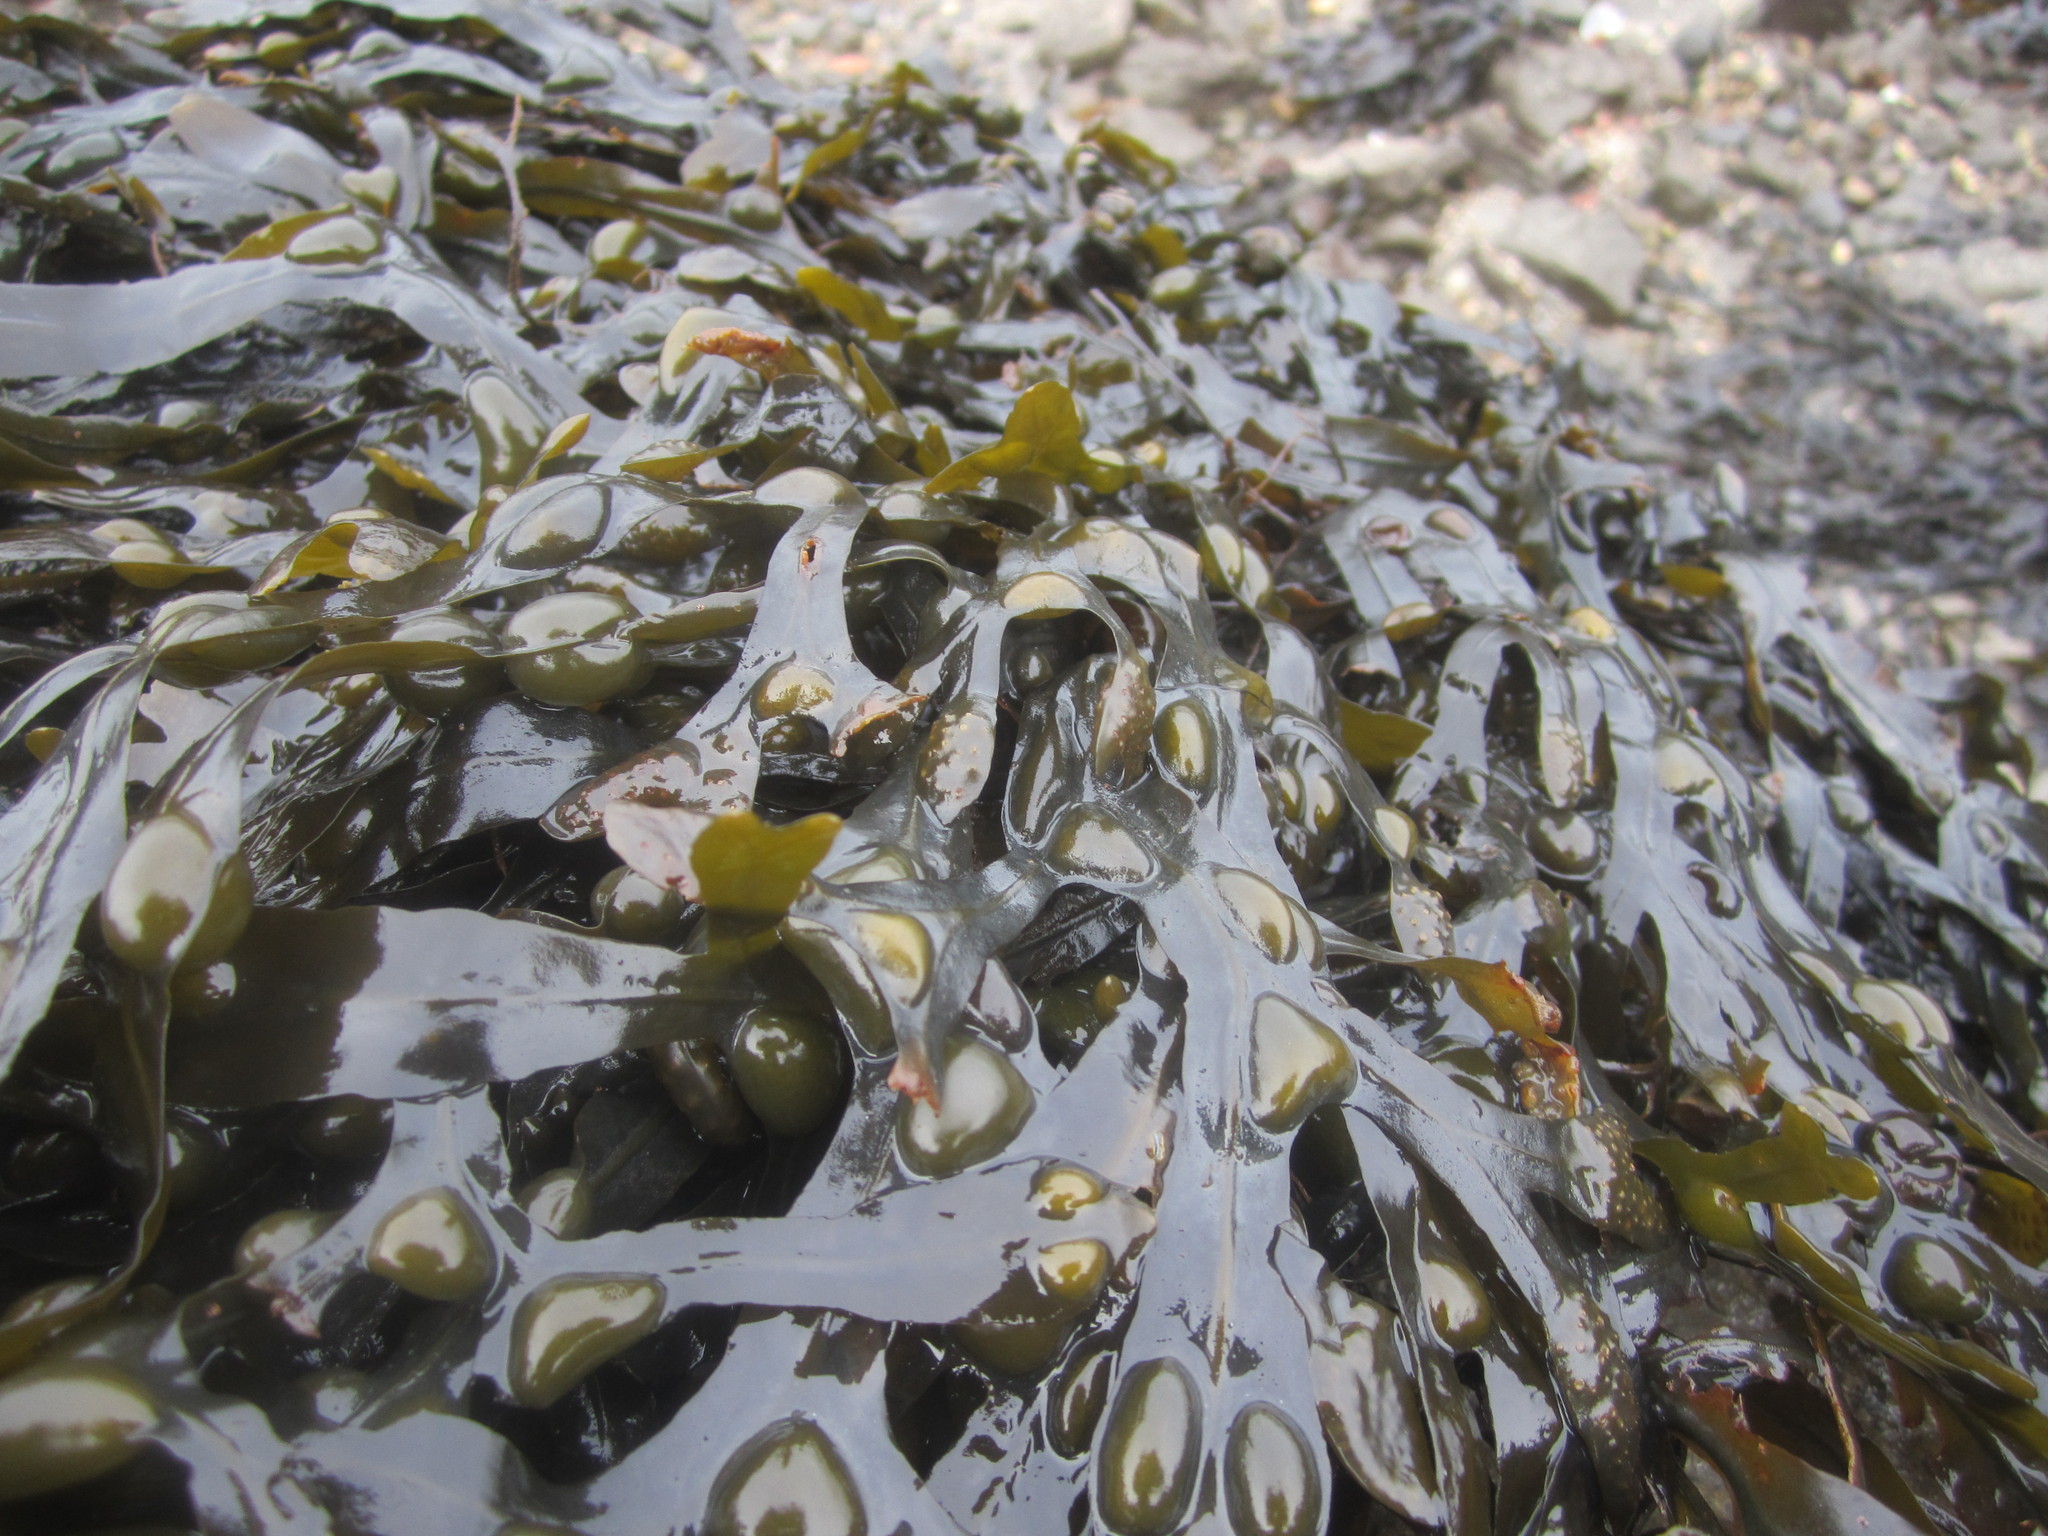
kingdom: Chromista
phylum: Ochrophyta
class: Phaeophyceae
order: Fucales
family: Fucaceae
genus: Fucus
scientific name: Fucus vesiculosus
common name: Bladder wrack
